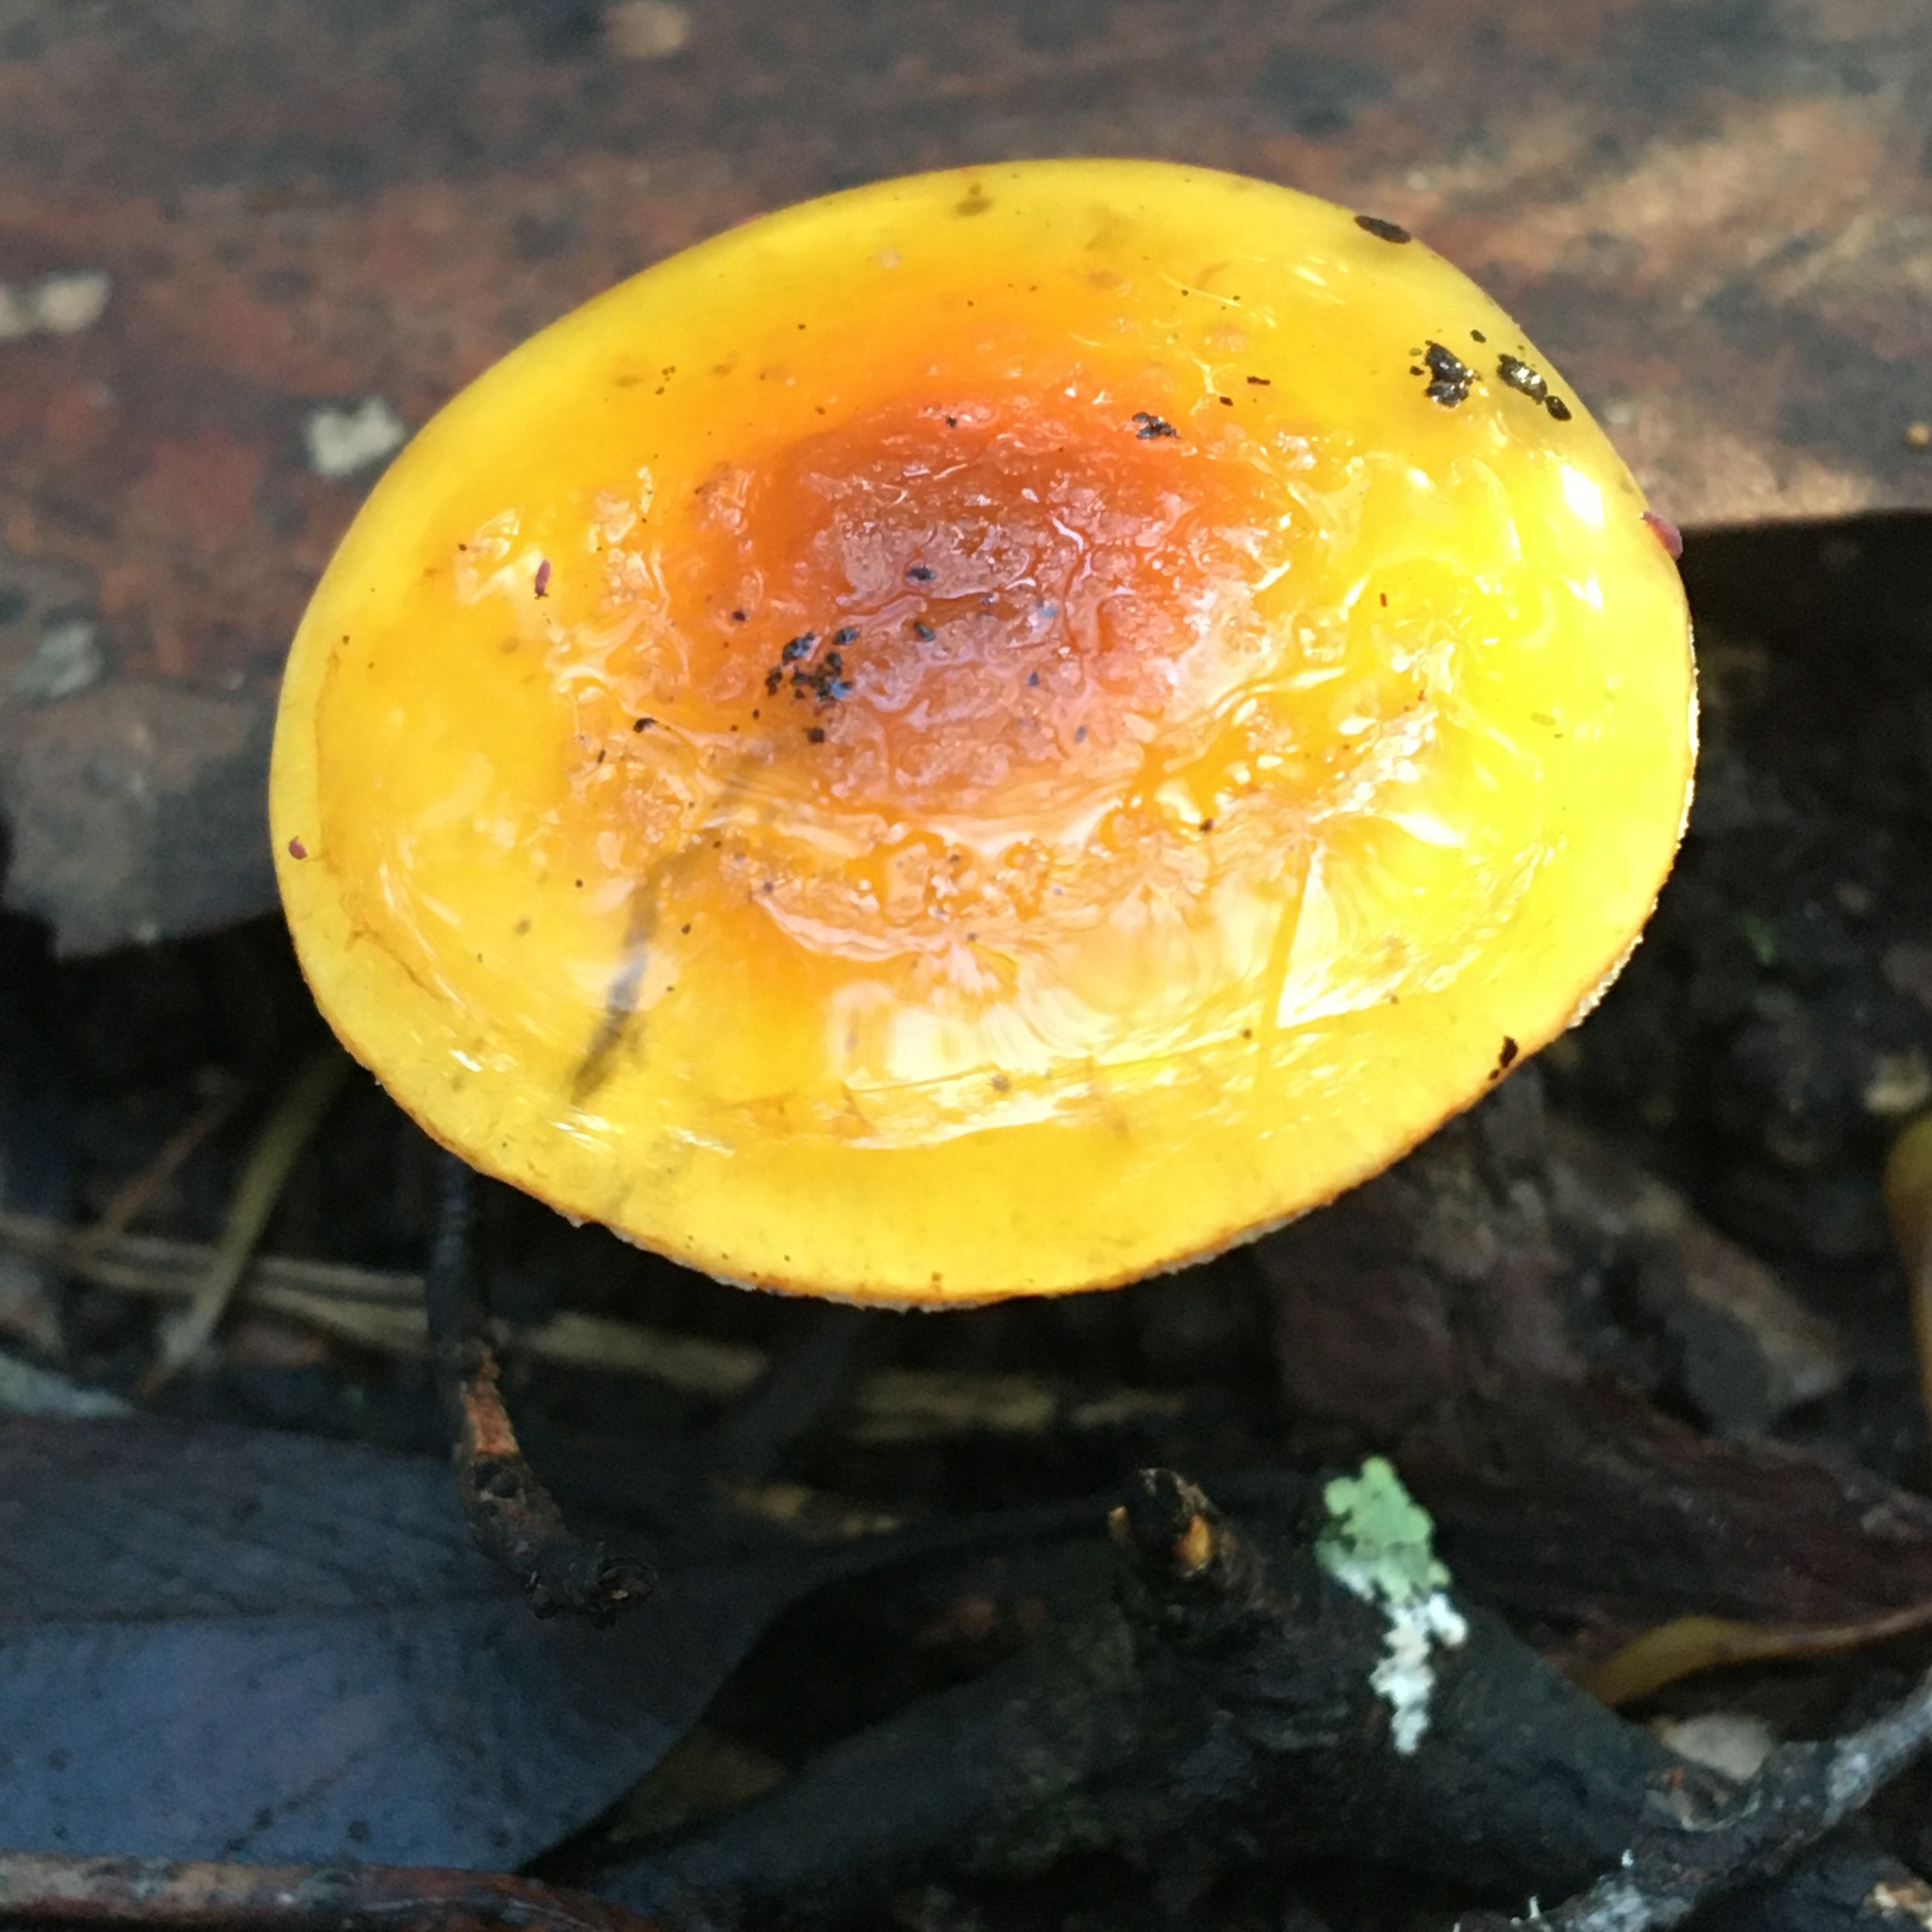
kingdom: Fungi
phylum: Basidiomycota
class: Agaricomycetes
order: Agaricales
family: Cortinariaceae
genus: Cortinarius
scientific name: Cortinarius sinapicolor
